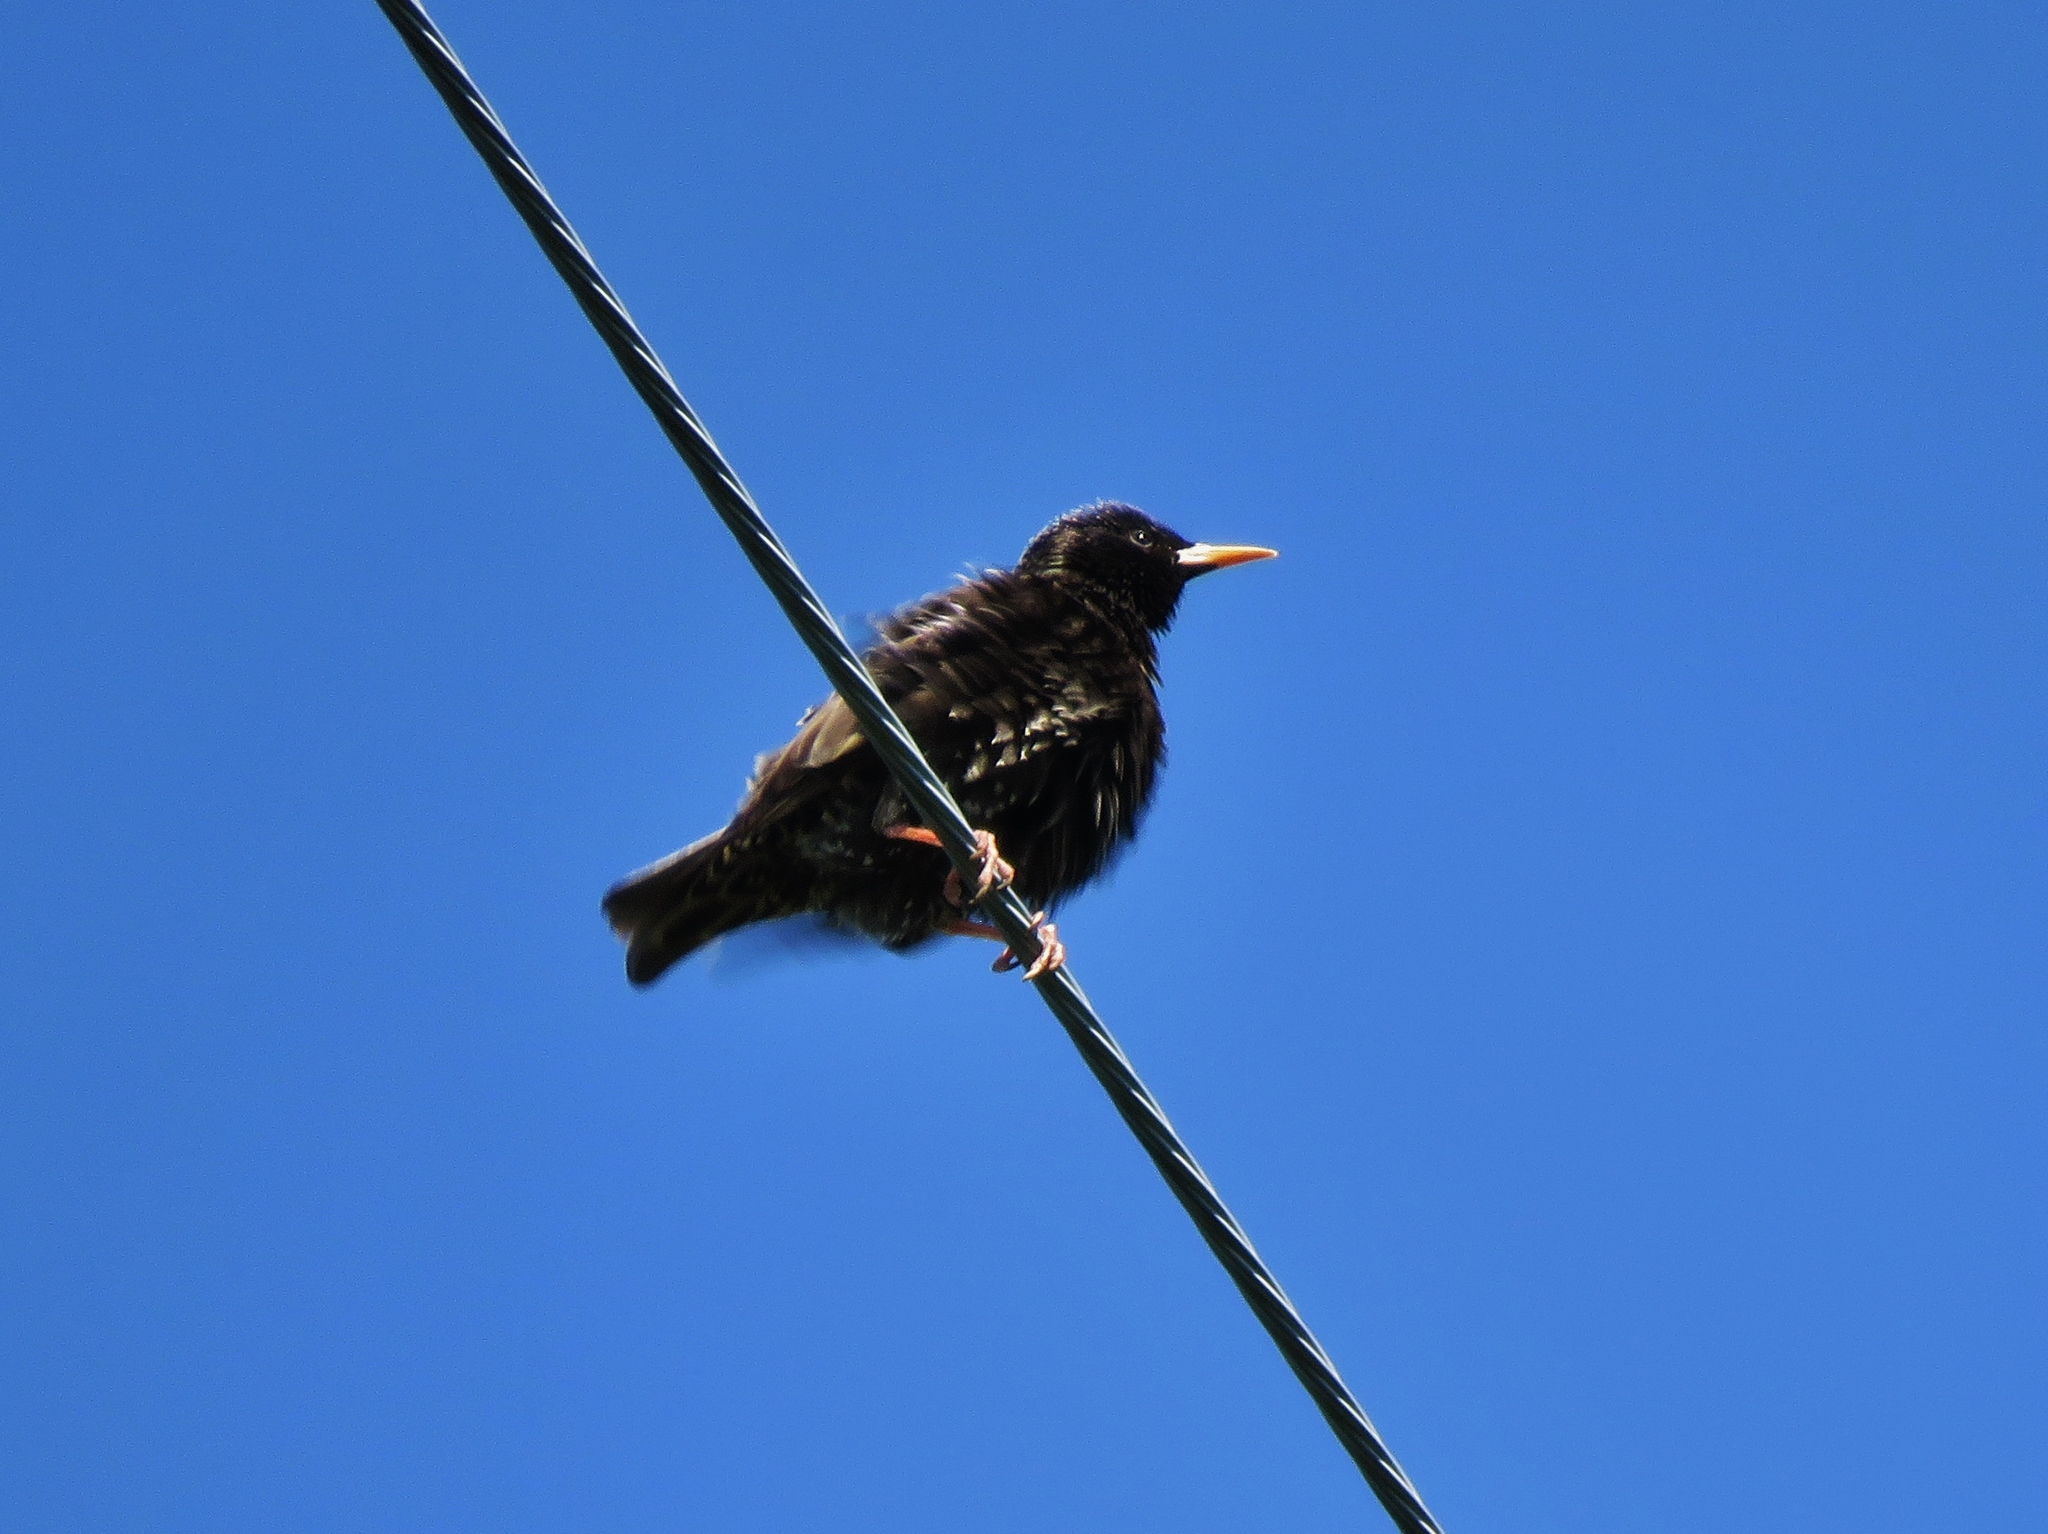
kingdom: Animalia
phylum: Chordata
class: Aves
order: Passeriformes
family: Sturnidae
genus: Sturnus
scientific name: Sturnus vulgaris
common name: Common starling
